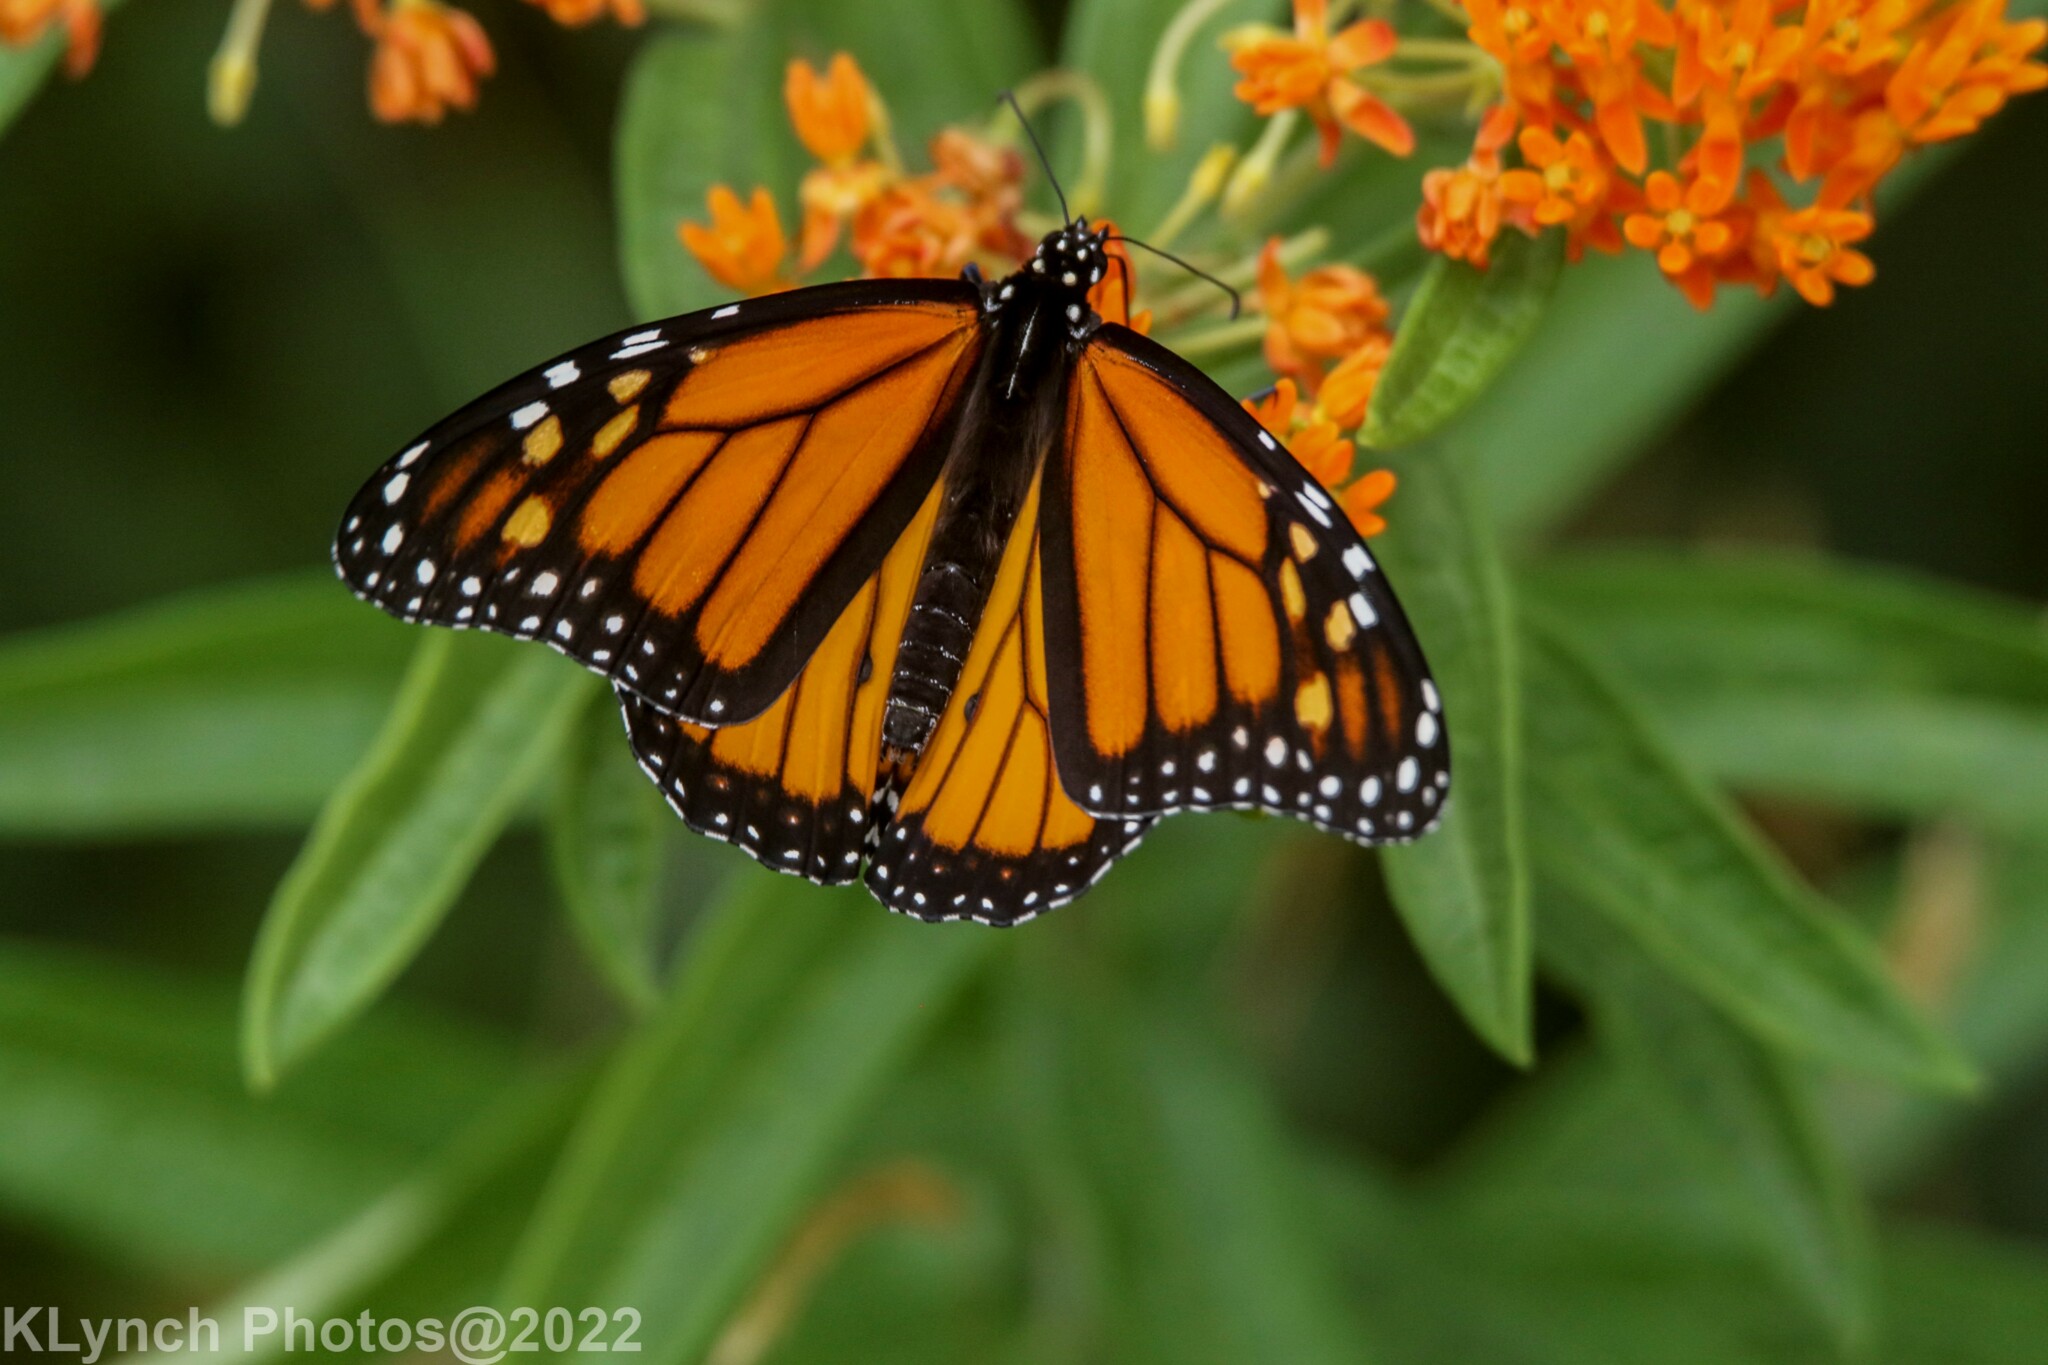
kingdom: Animalia
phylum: Arthropoda
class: Insecta
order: Lepidoptera
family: Nymphalidae
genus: Danaus
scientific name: Danaus plexippus
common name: Monarch
